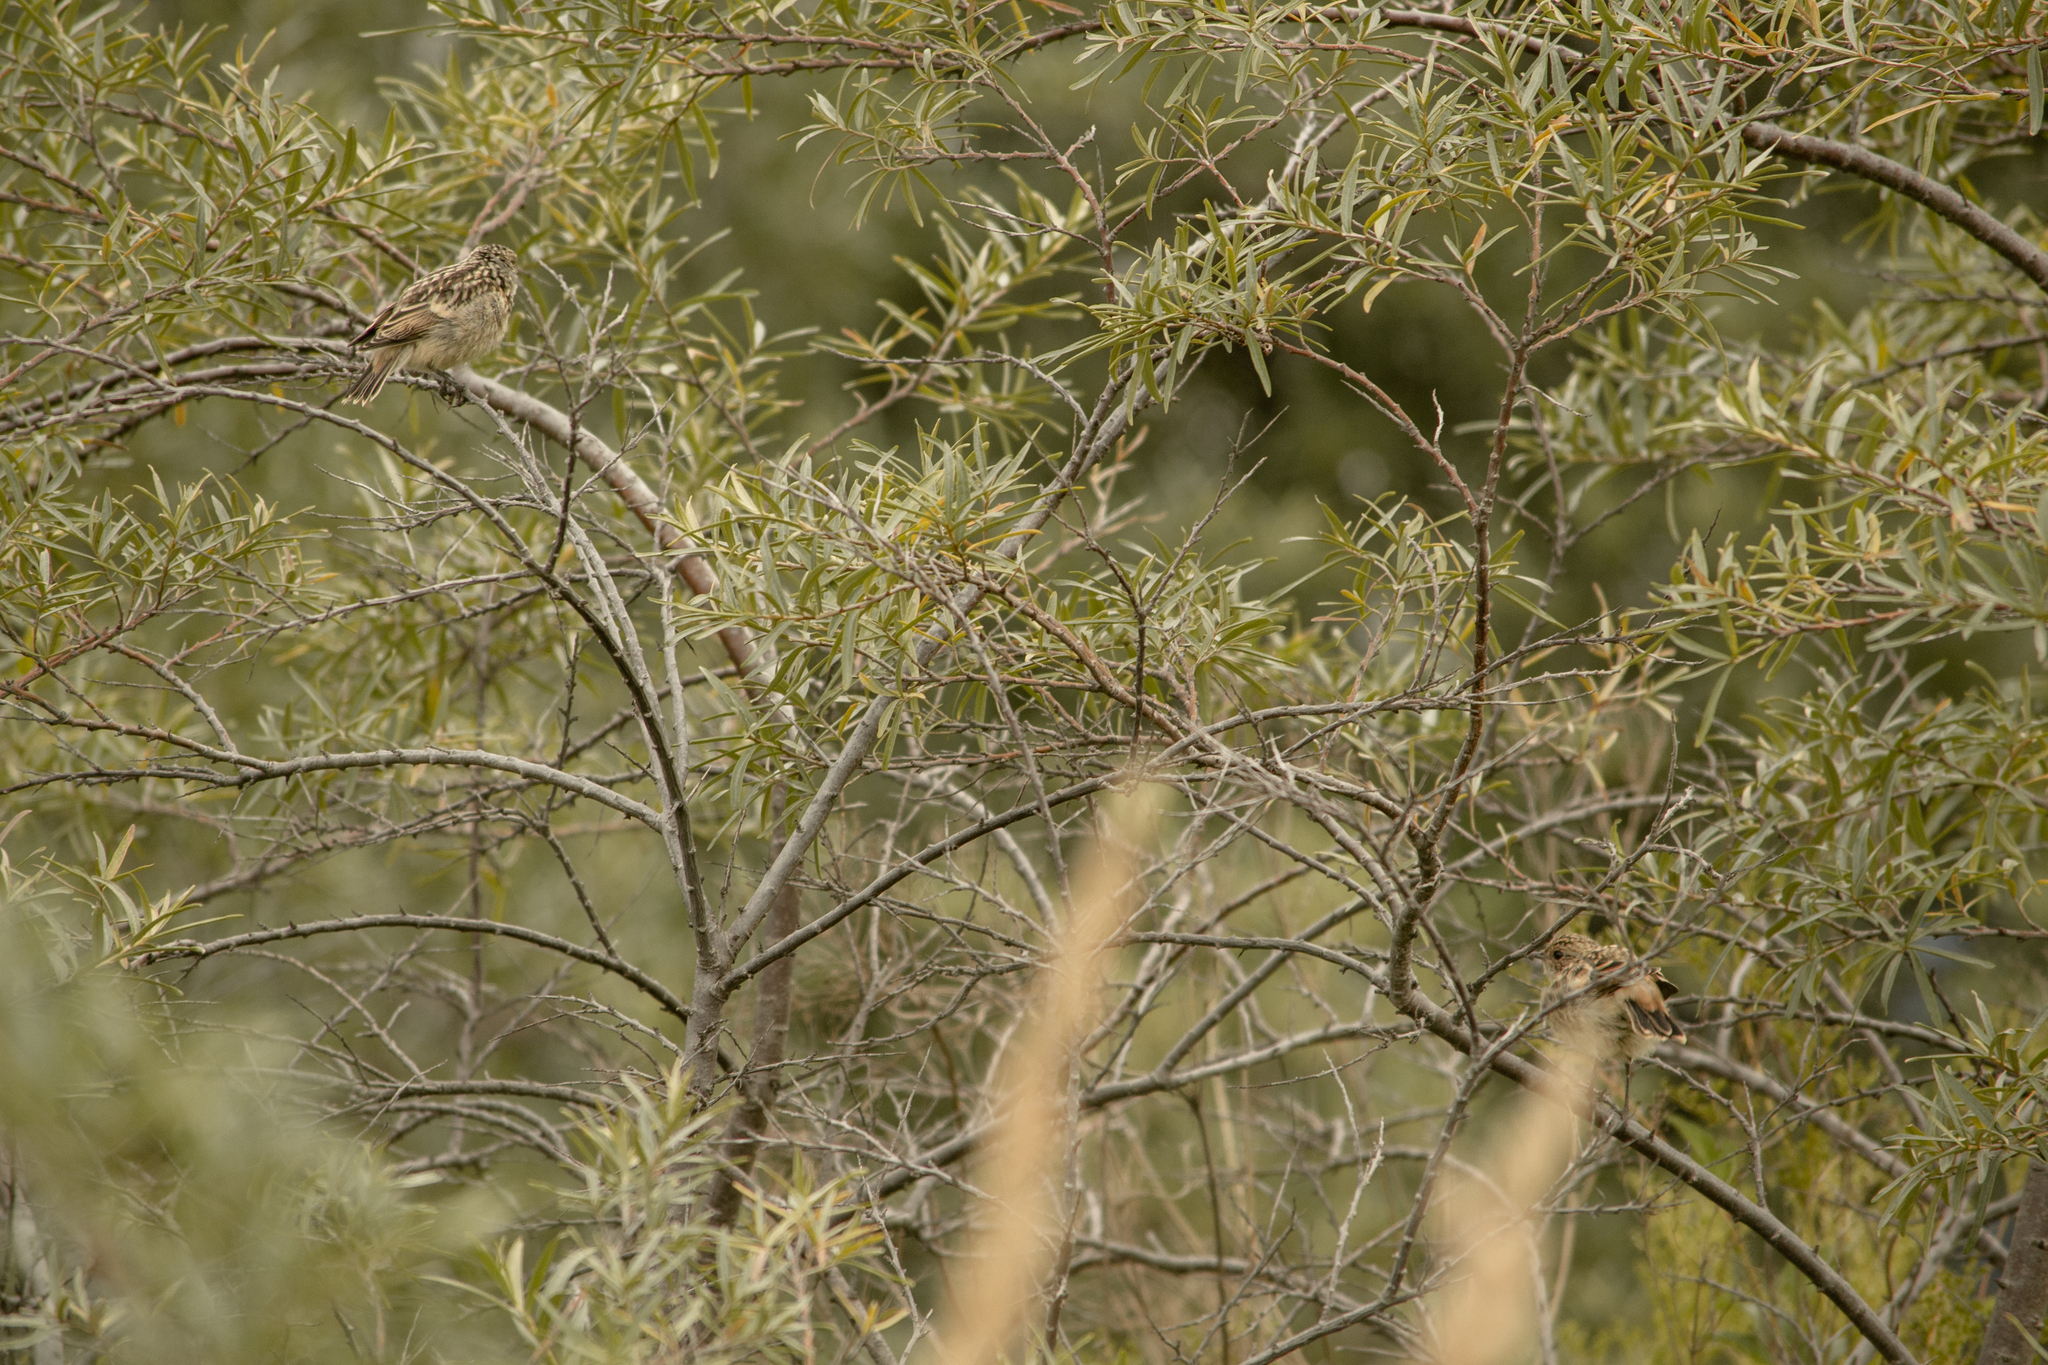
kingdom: Animalia
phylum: Chordata
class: Aves
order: Passeriformes
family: Muscicapidae
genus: Saxicola
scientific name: Saxicola maurus
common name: Siberian stonechat
